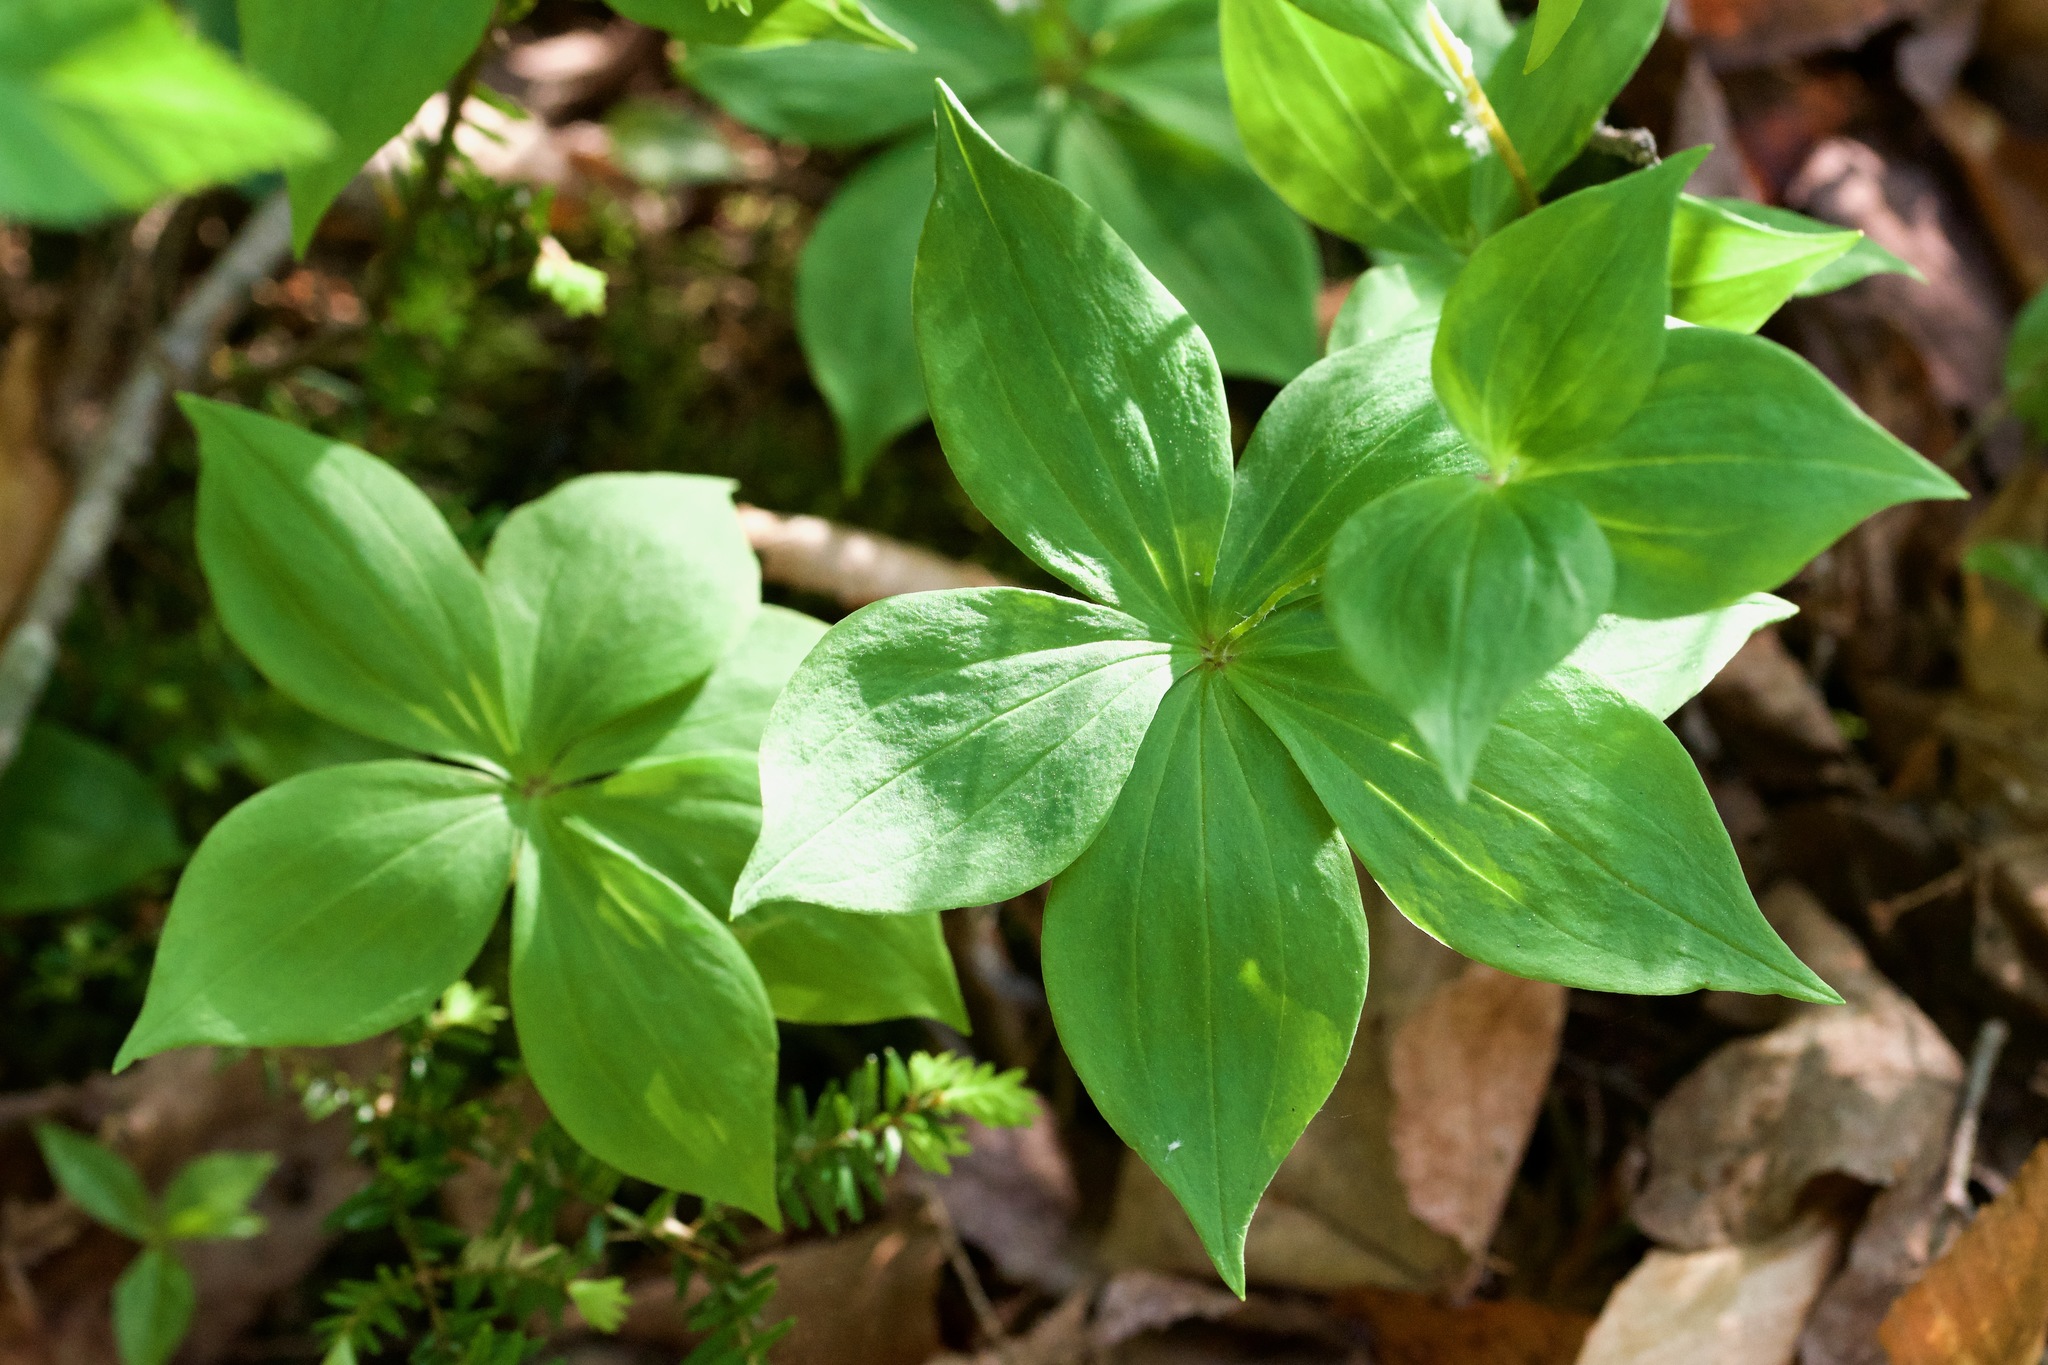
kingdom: Plantae
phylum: Tracheophyta
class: Liliopsida
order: Liliales
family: Liliaceae
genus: Medeola
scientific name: Medeola virginiana
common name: Indian cucumber-root
